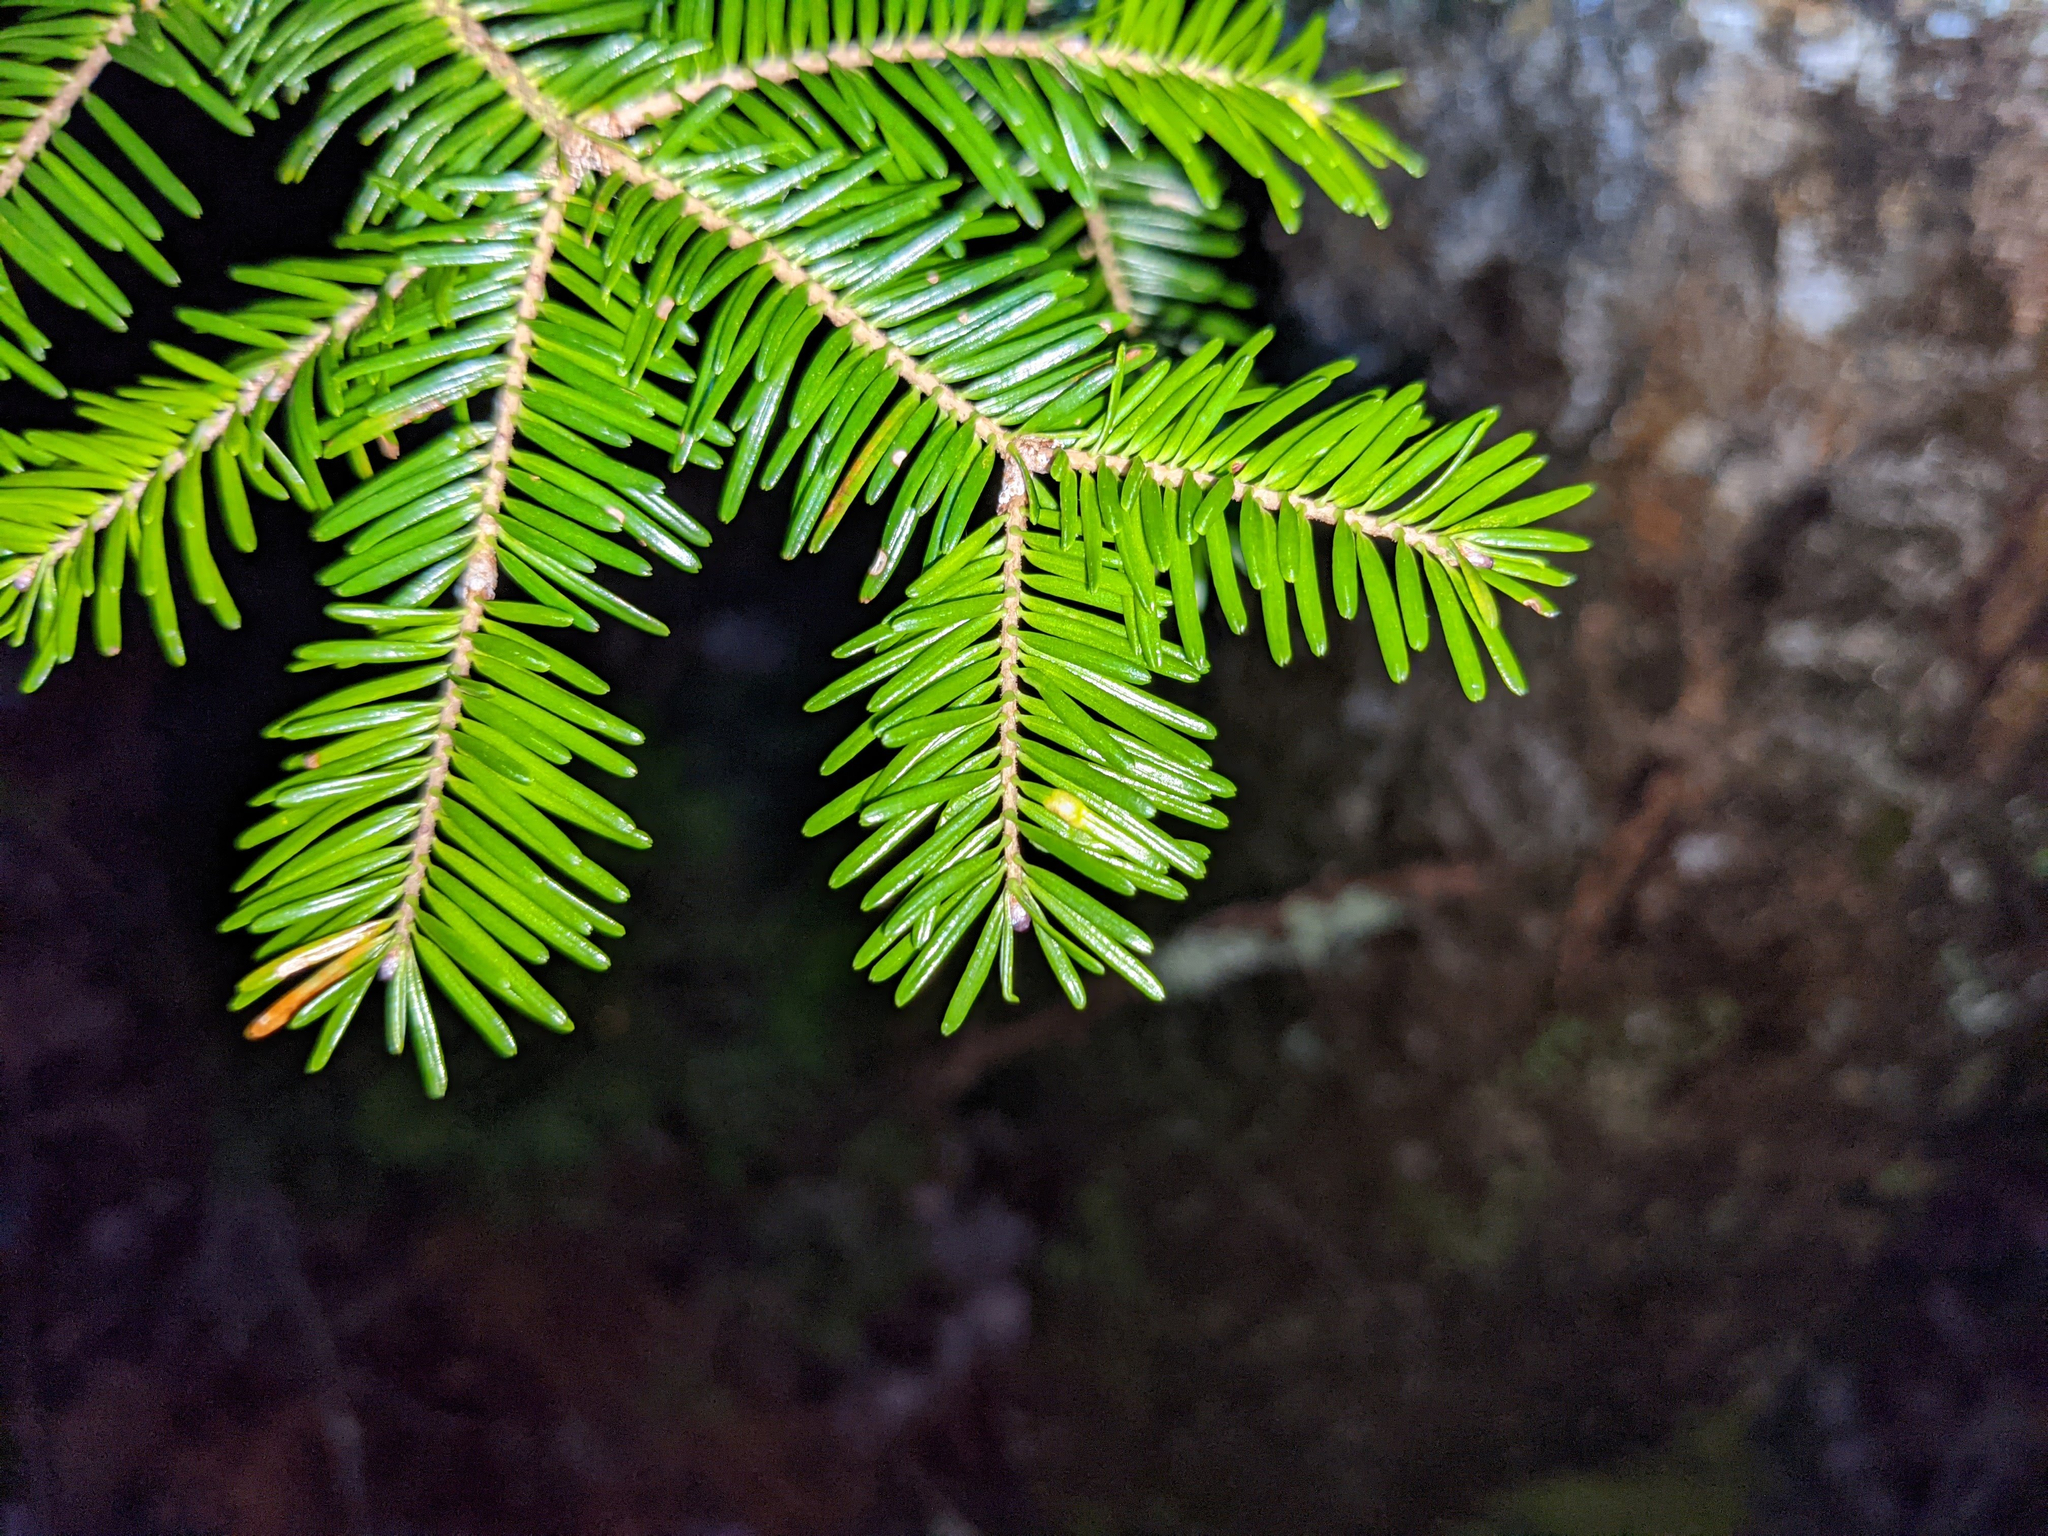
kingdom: Animalia
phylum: Arthropoda
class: Insecta
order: Diptera
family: Cecidomyiidae
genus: Paradiplosis
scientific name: Paradiplosis tumifex
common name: Gall midge
